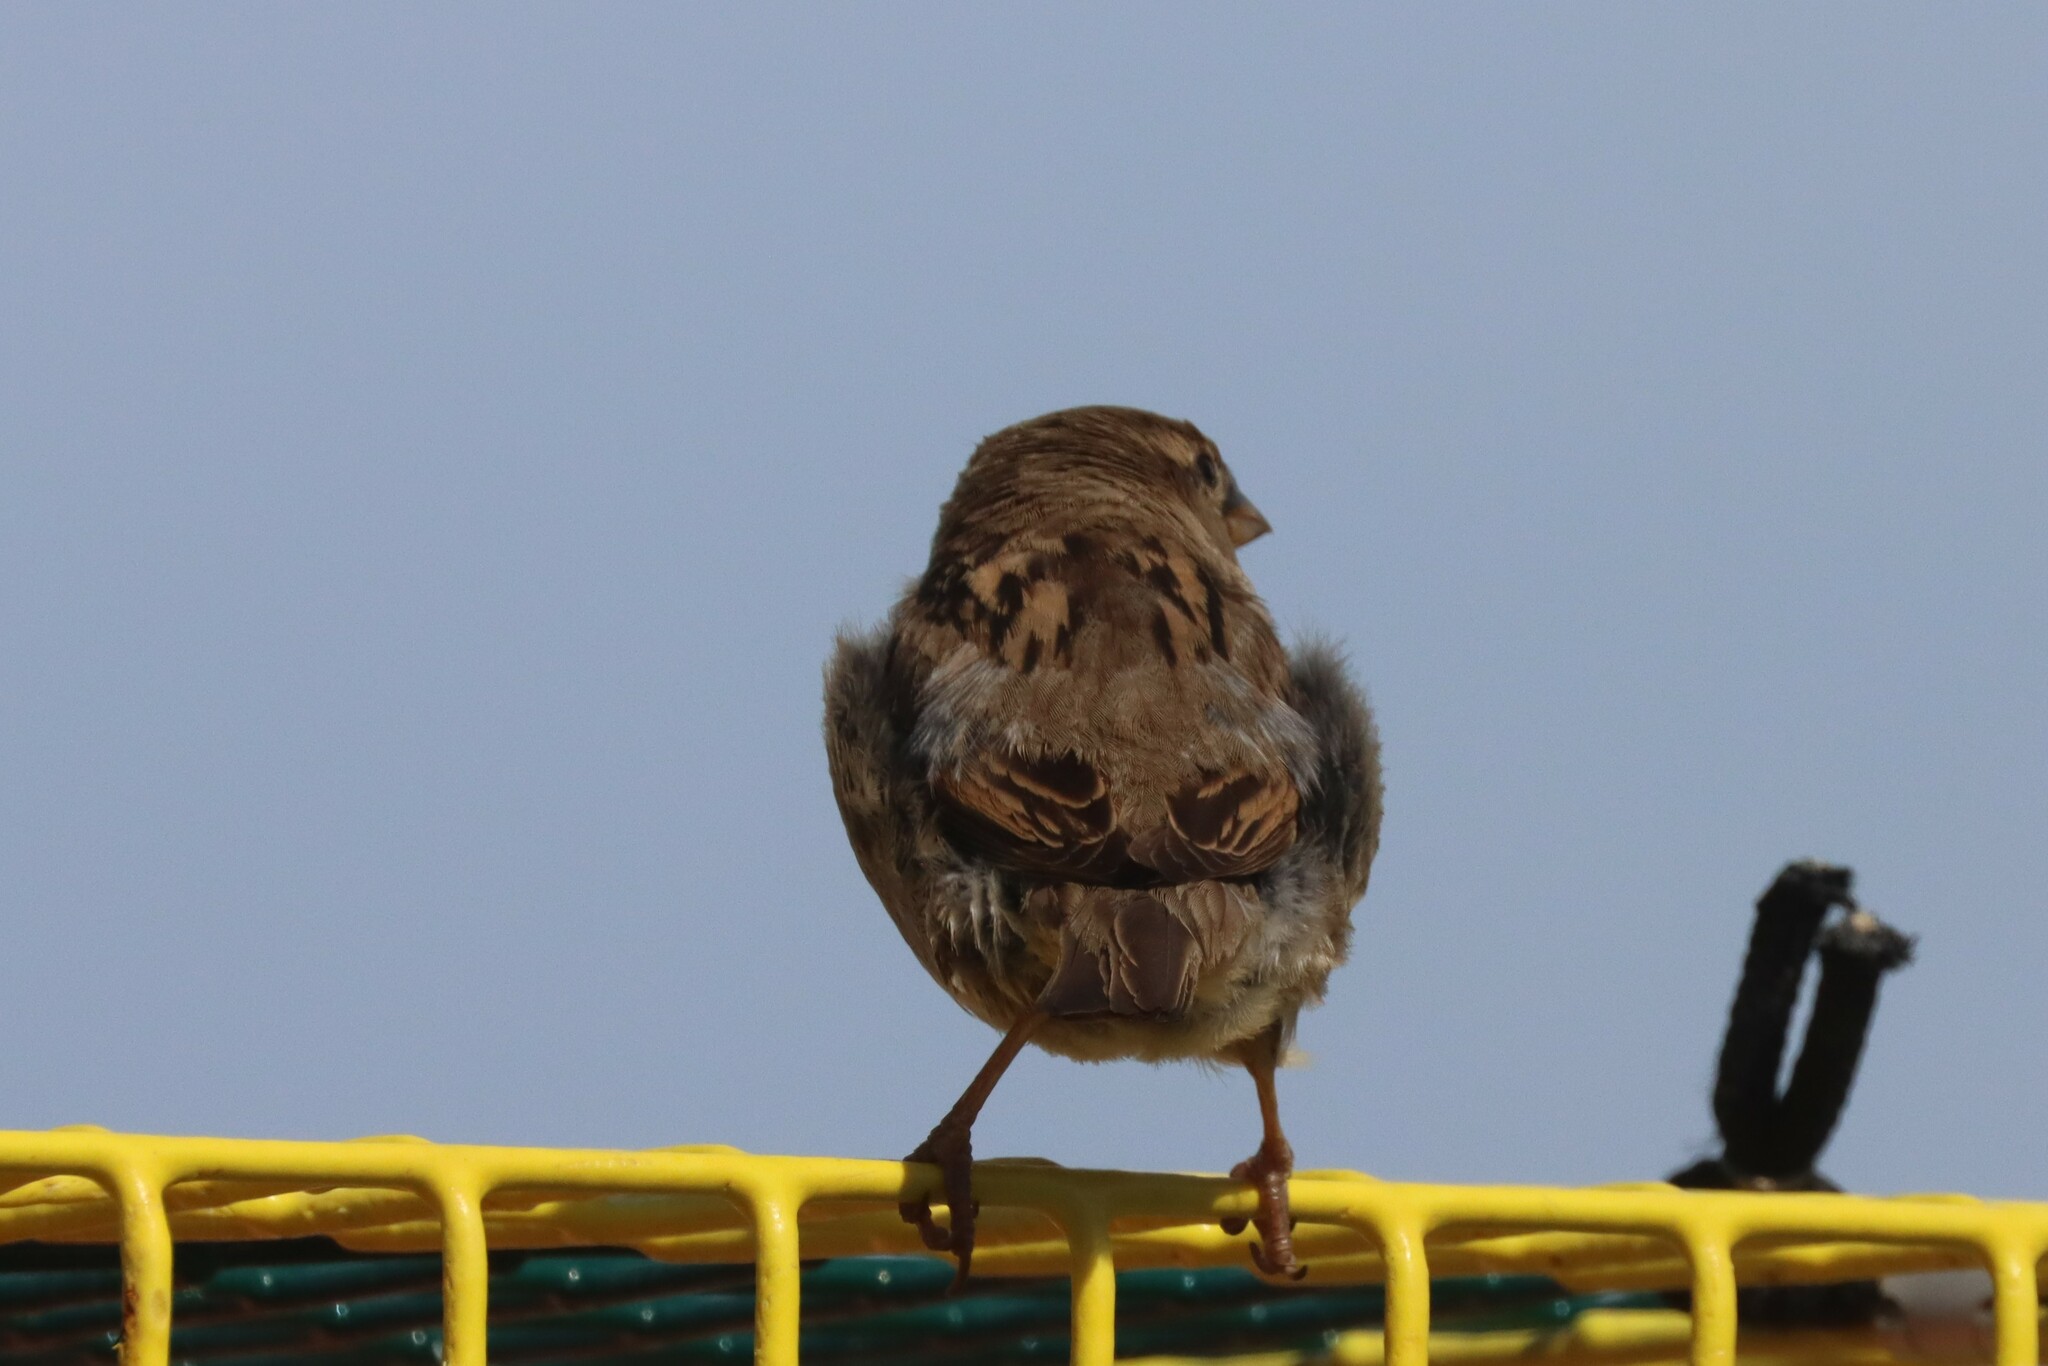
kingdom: Animalia
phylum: Chordata
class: Aves
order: Passeriformes
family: Passeridae
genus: Passer
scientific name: Passer domesticus
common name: House sparrow
